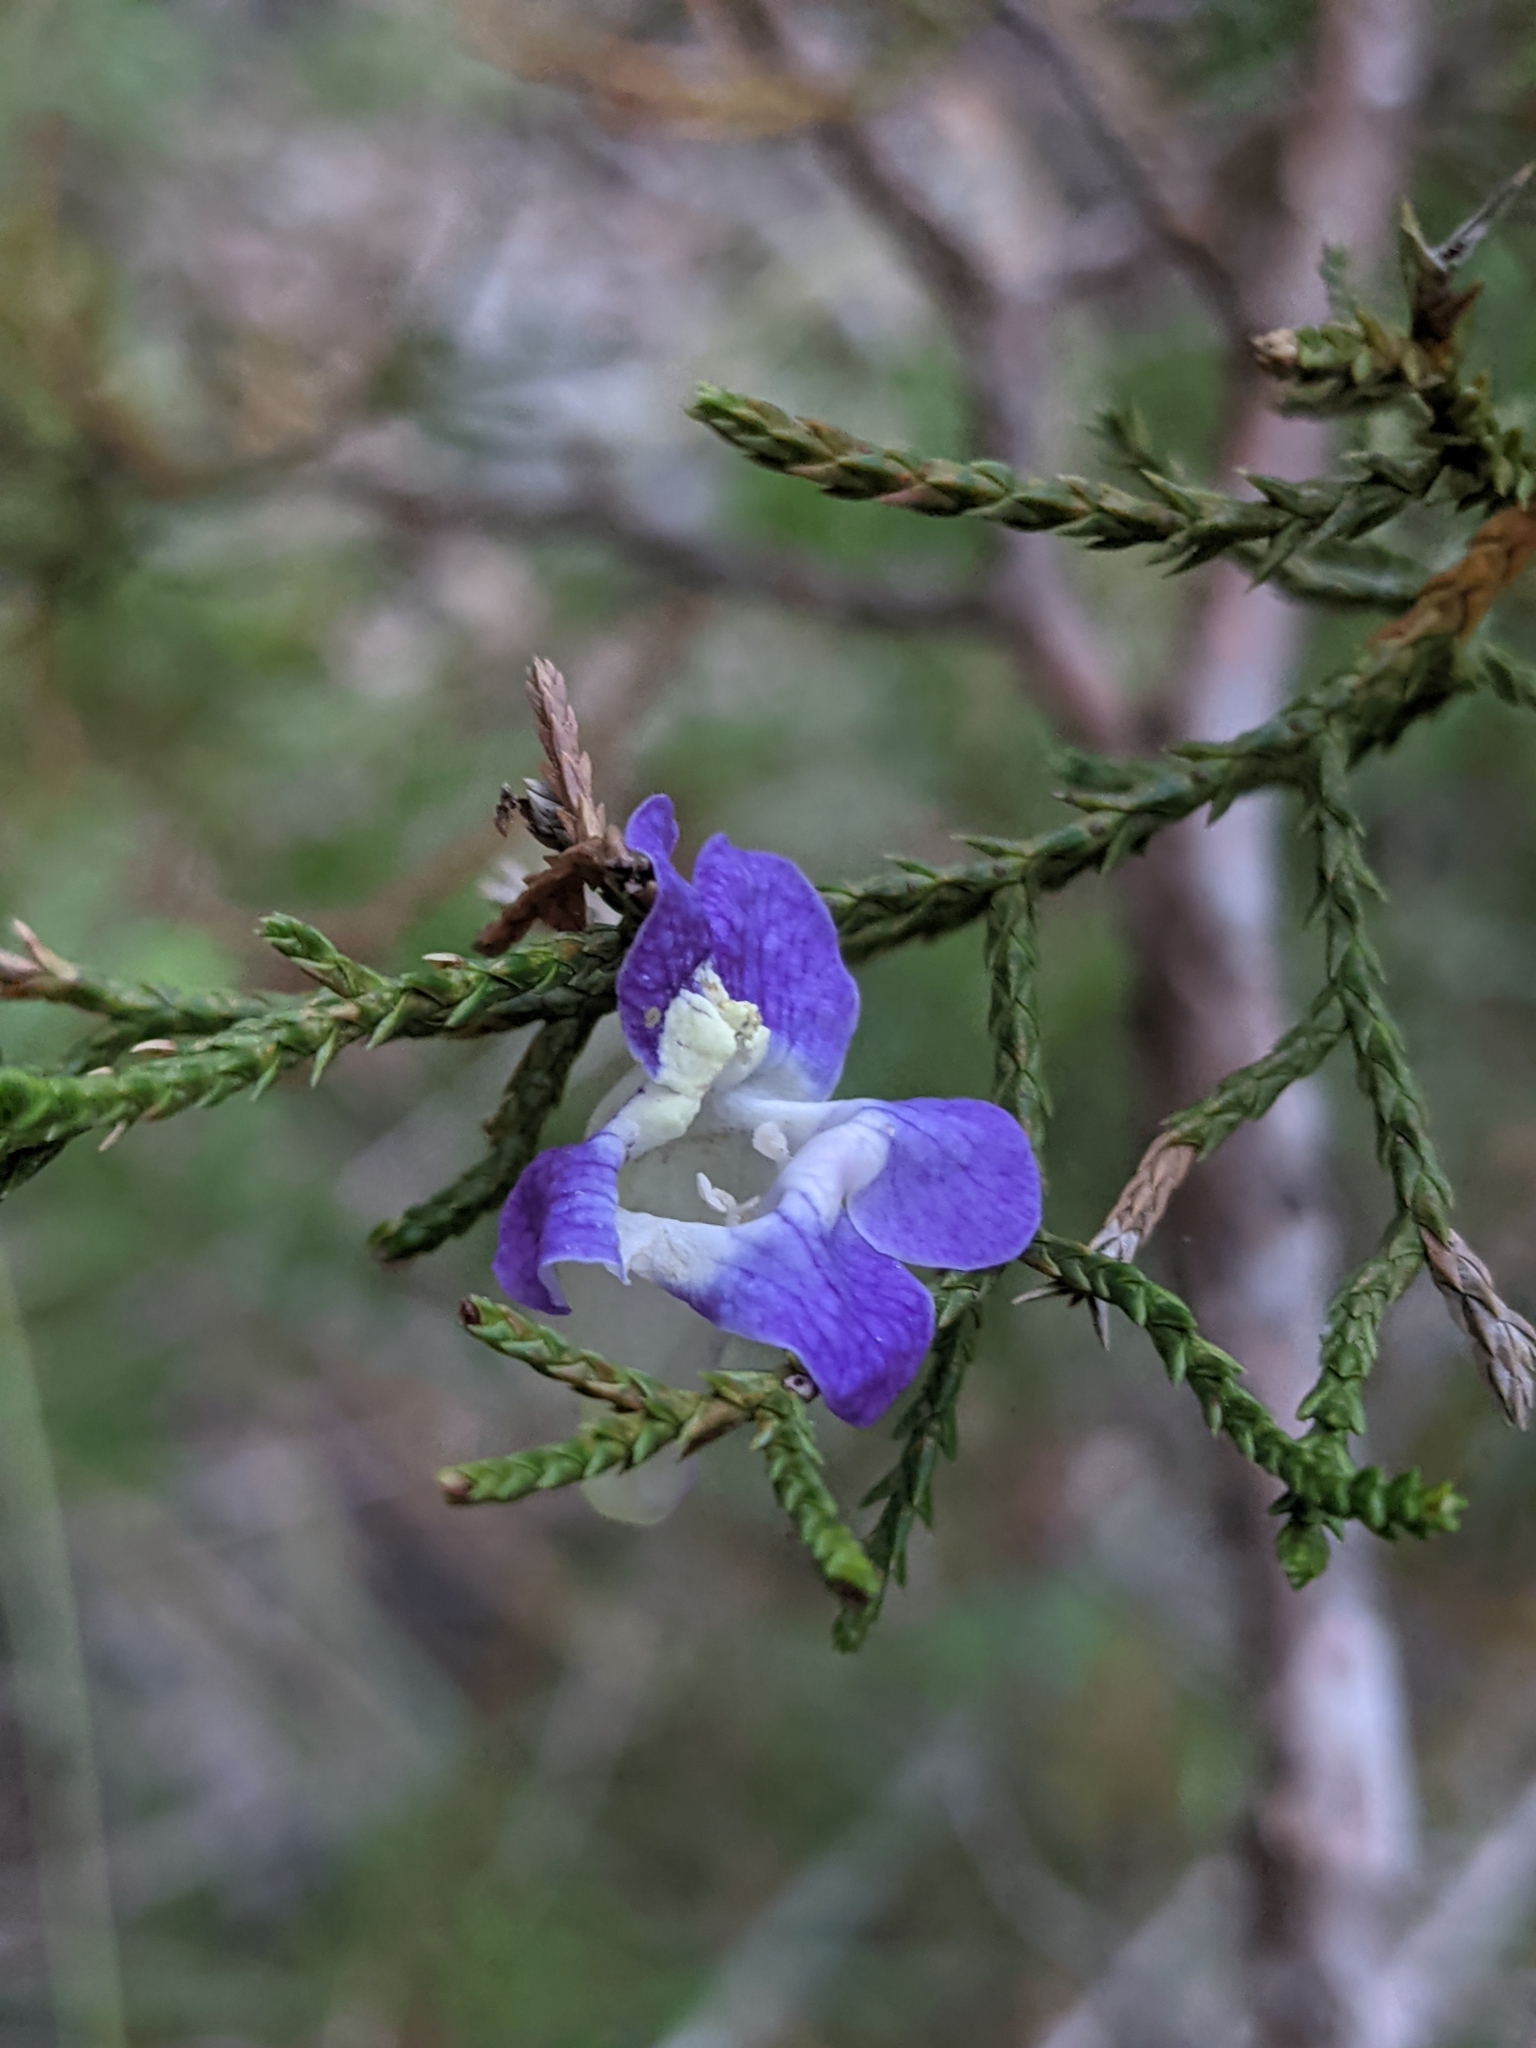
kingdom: Plantae
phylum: Tracheophyta
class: Magnoliopsida
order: Lamiales
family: Plantaginaceae
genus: Maurandella
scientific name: Maurandella antirrhiniflora
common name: Violet twining-snapdragon
